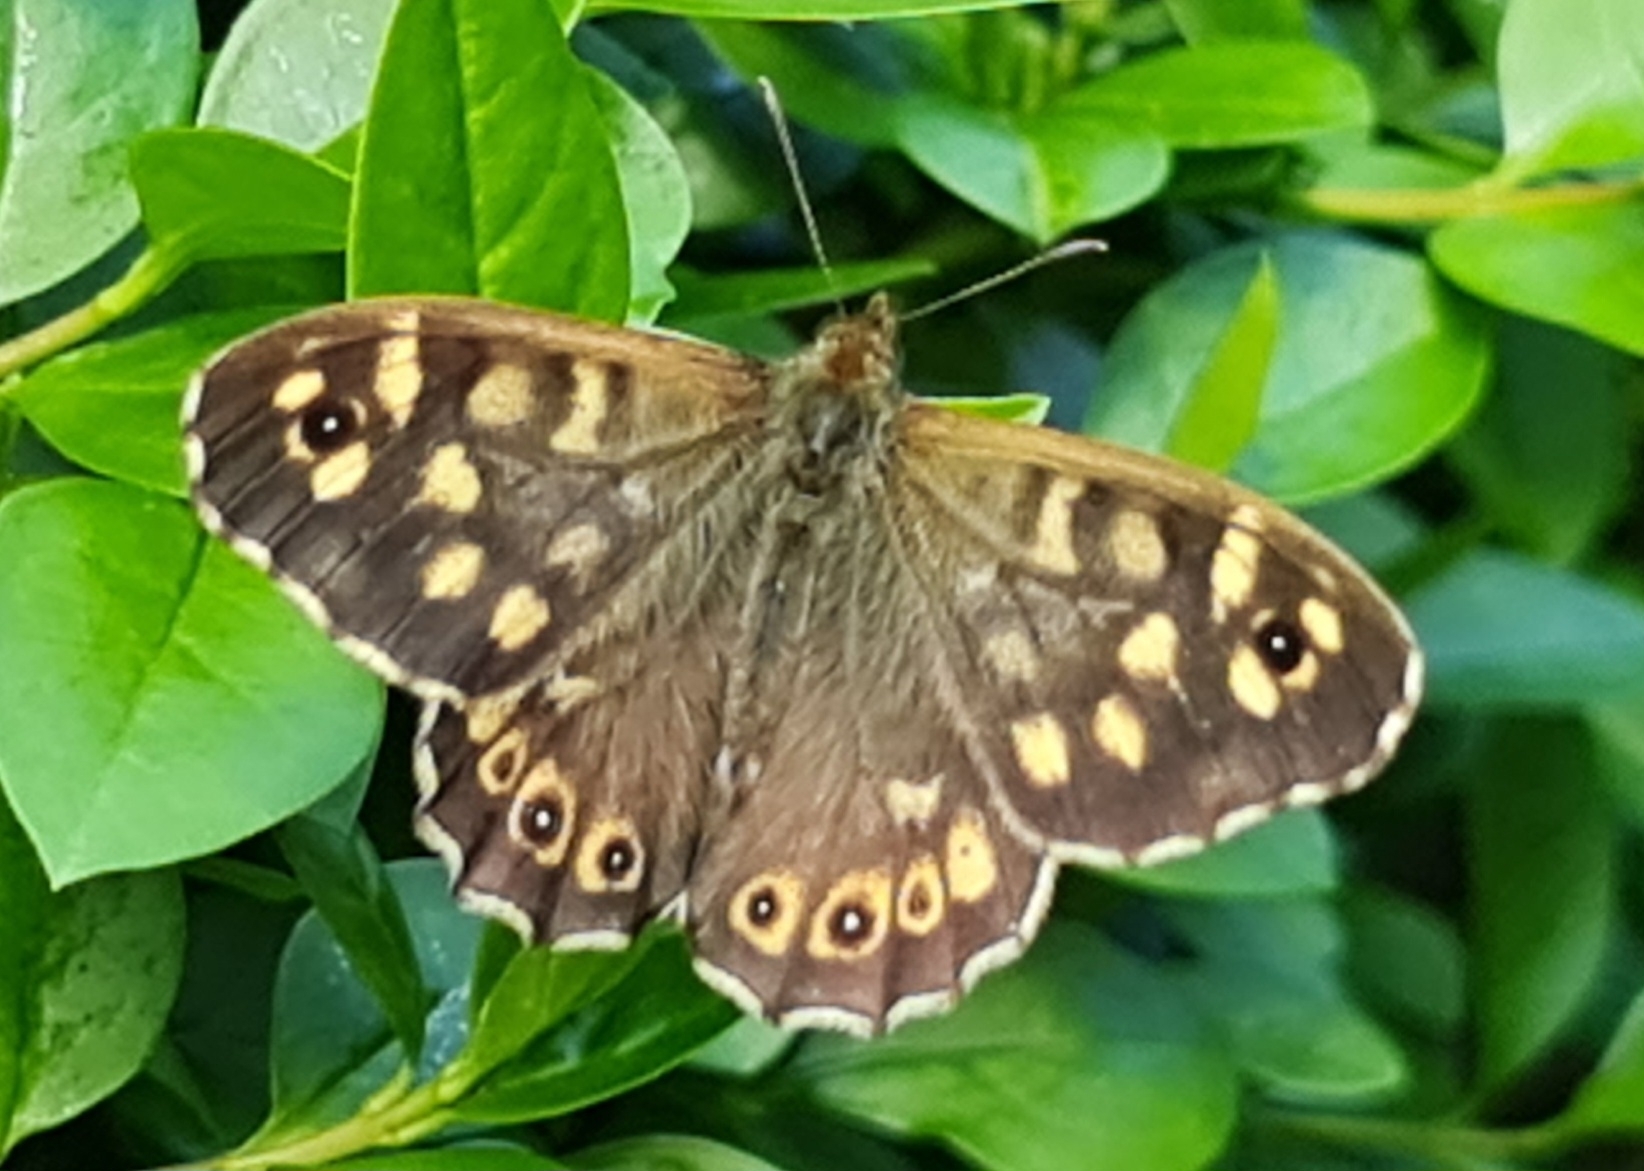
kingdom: Animalia
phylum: Arthropoda
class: Insecta
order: Lepidoptera
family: Nymphalidae
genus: Pararge
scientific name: Pararge aegeria
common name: Speckled wood
